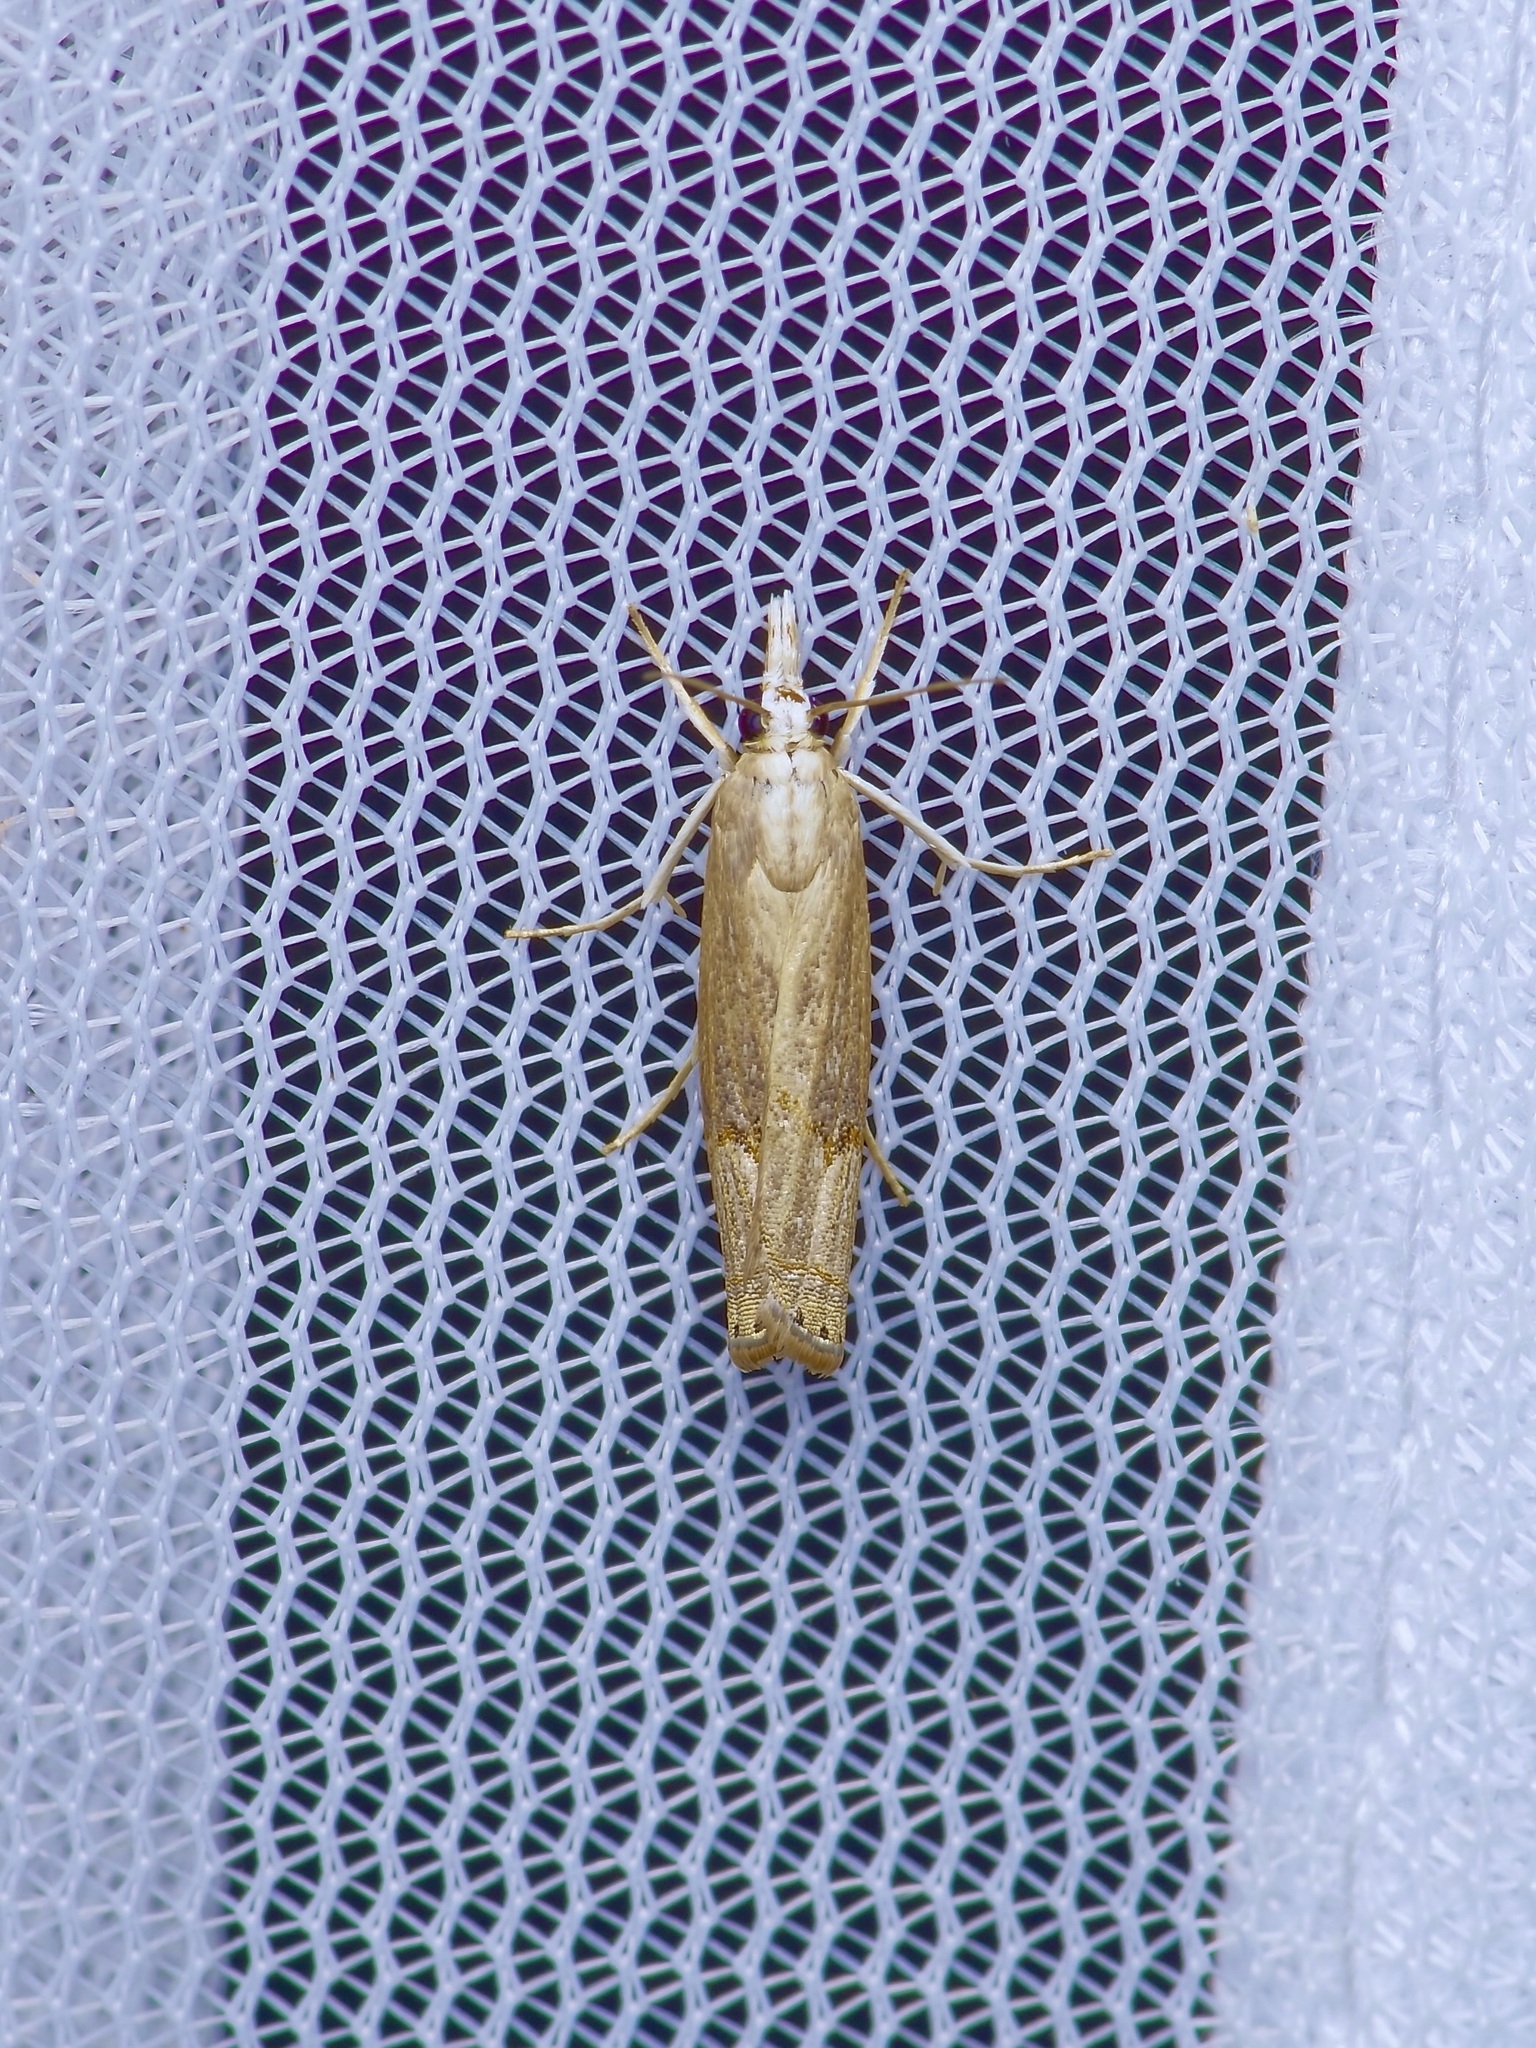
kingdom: Animalia
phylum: Arthropoda
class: Insecta
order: Lepidoptera
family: Crambidae
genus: Parapediasia
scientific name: Parapediasia teterellus
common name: Bluegrass webworm moth
